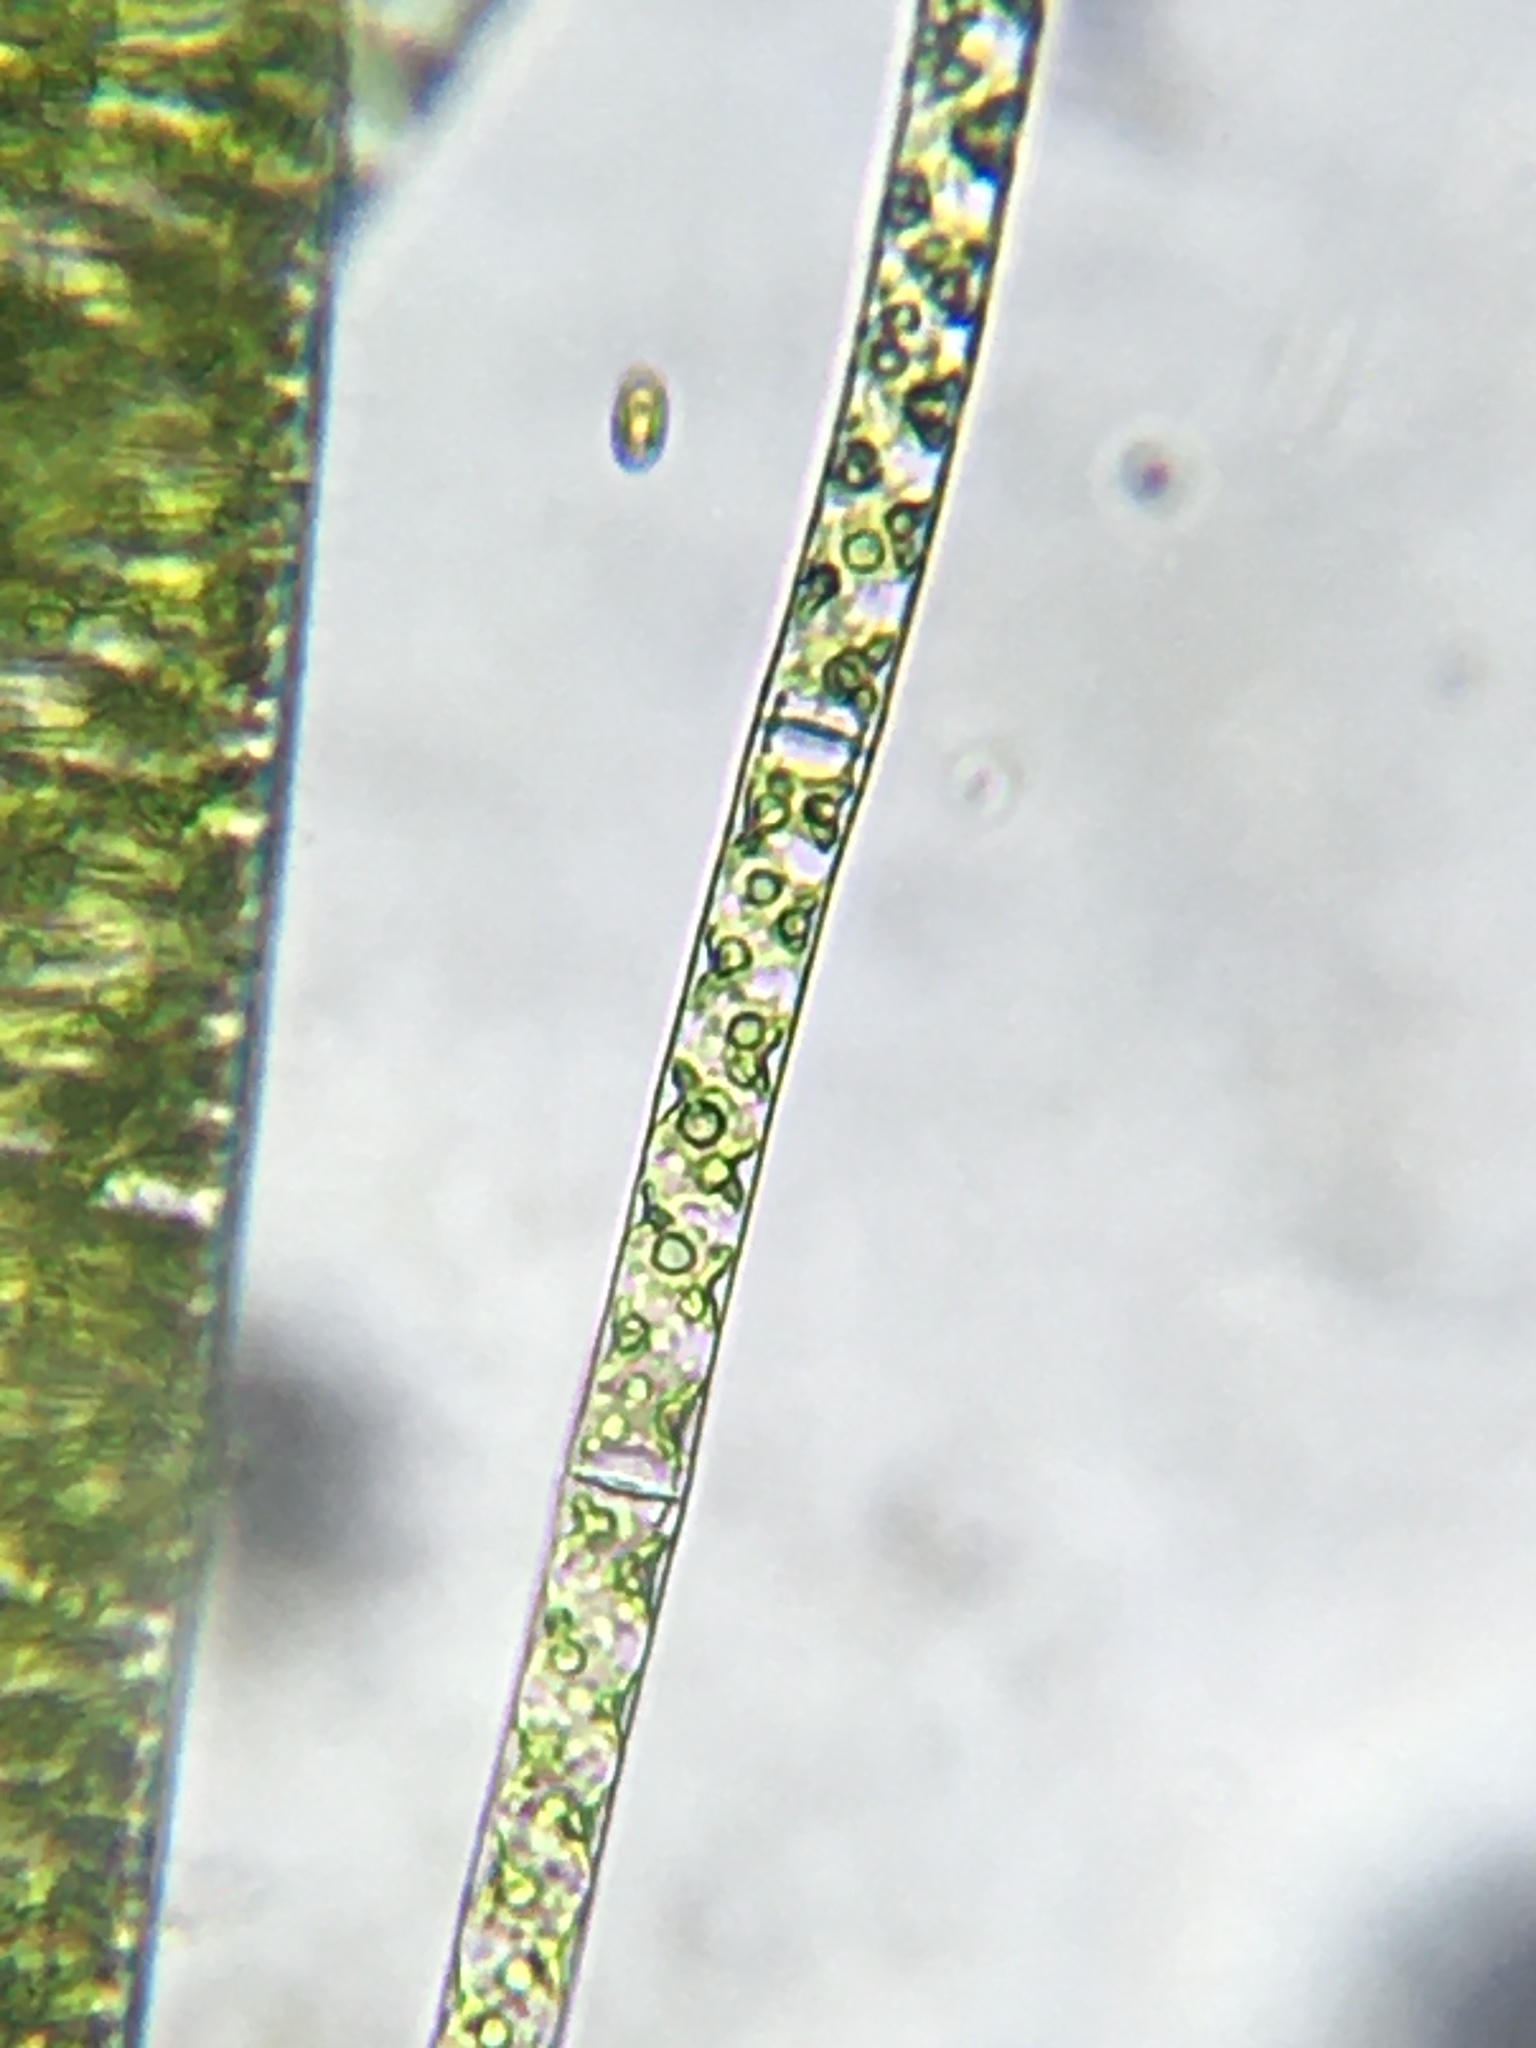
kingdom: Plantae
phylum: Charophyta
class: Zygnematophyceae
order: Zygnematales
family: Zygnemataceae
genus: Spirogyra
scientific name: Spirogyra
